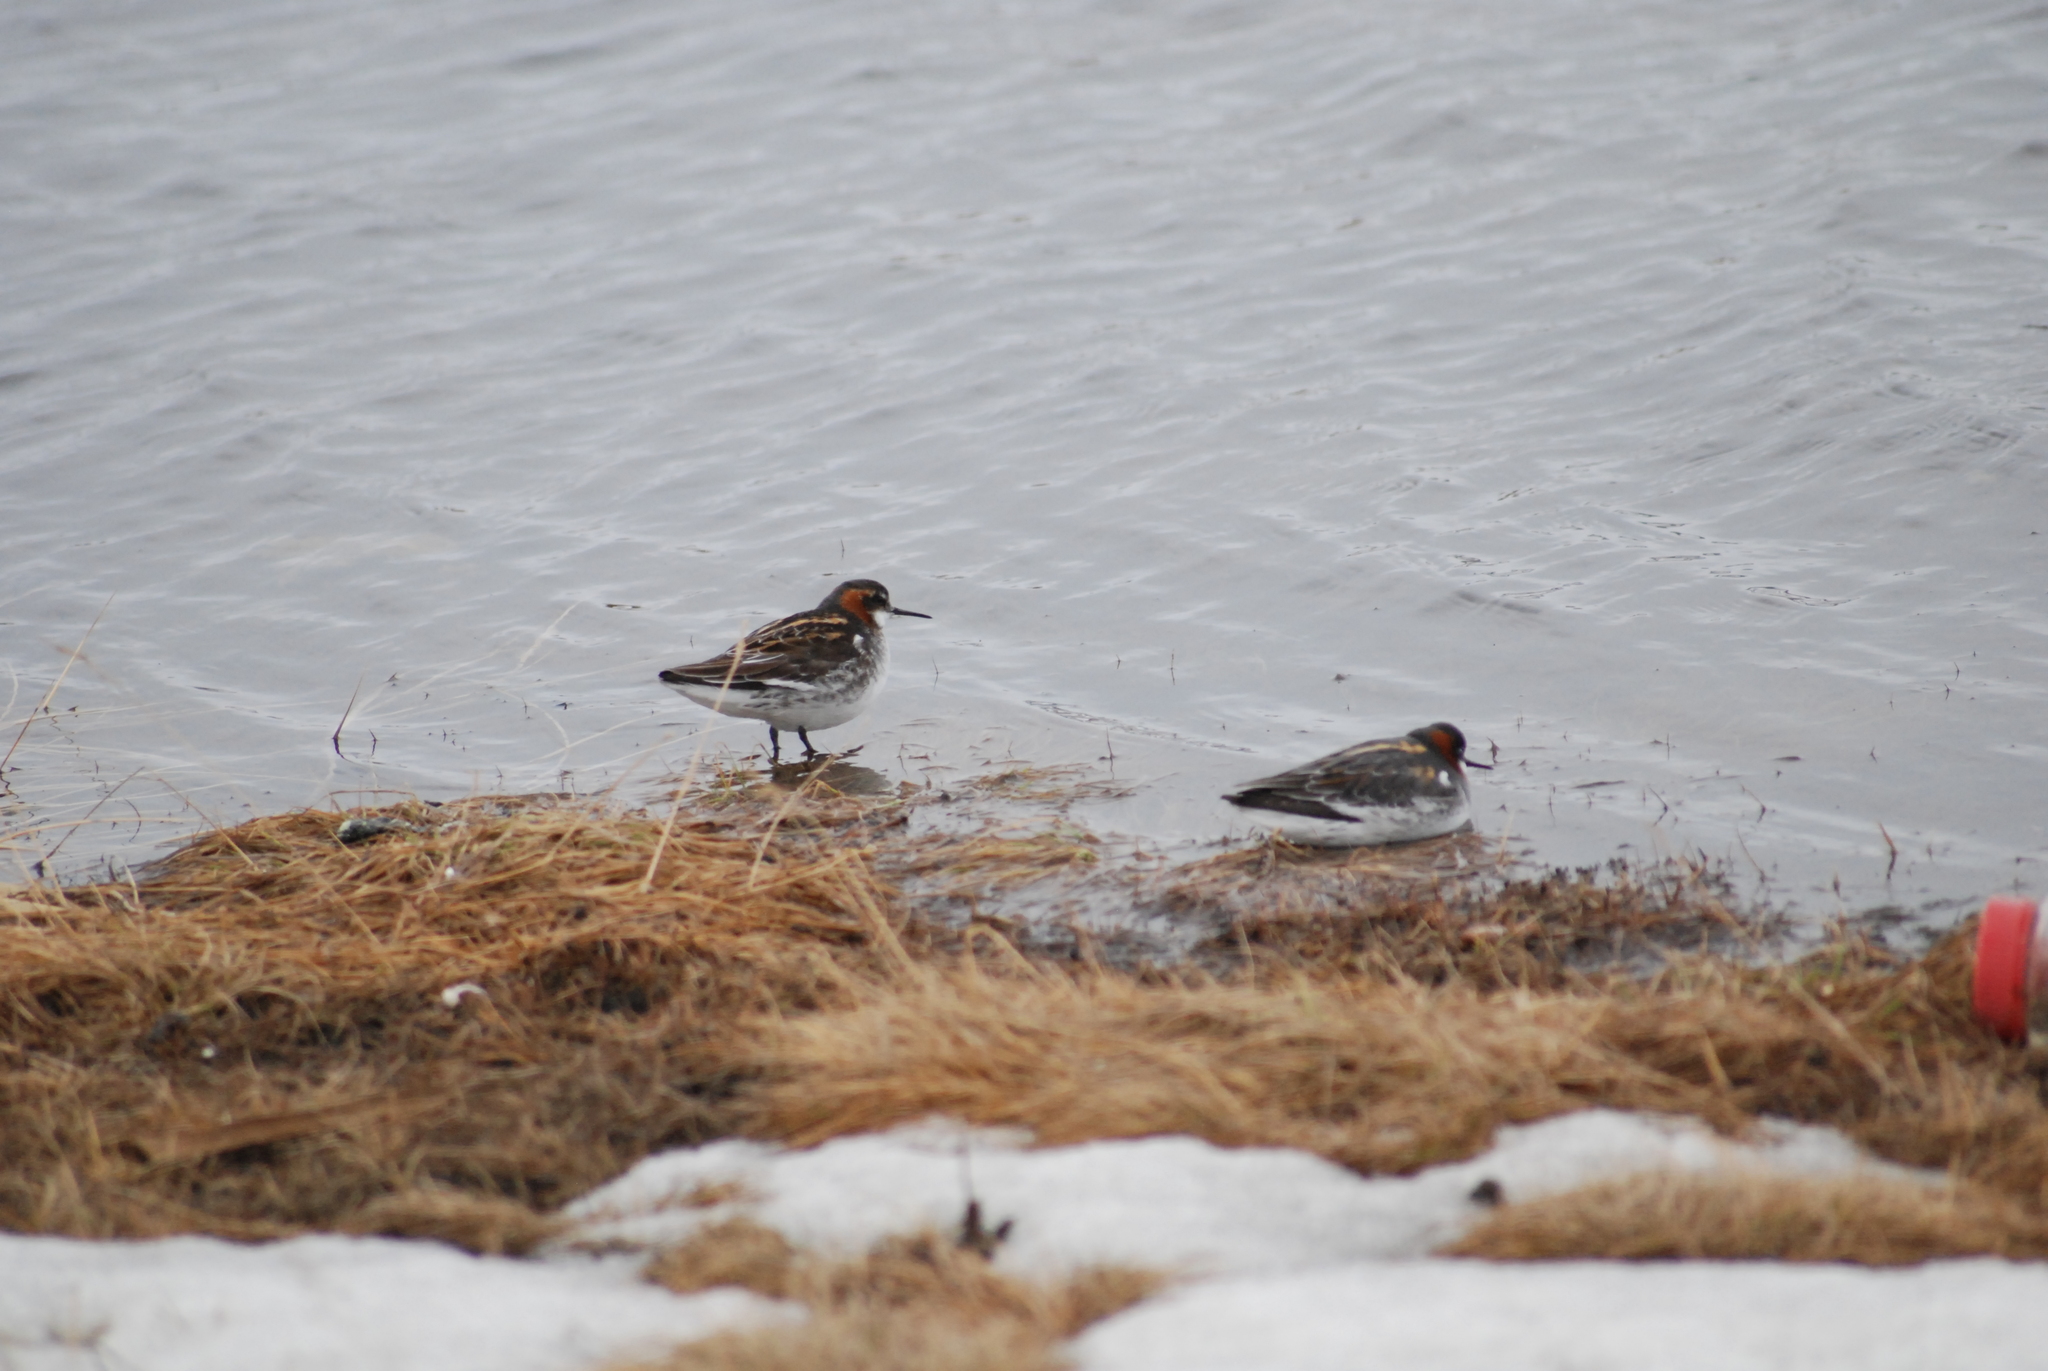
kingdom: Animalia
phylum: Chordata
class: Aves
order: Charadriiformes
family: Scolopacidae
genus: Phalaropus
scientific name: Phalaropus lobatus
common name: Red-necked phalarope
